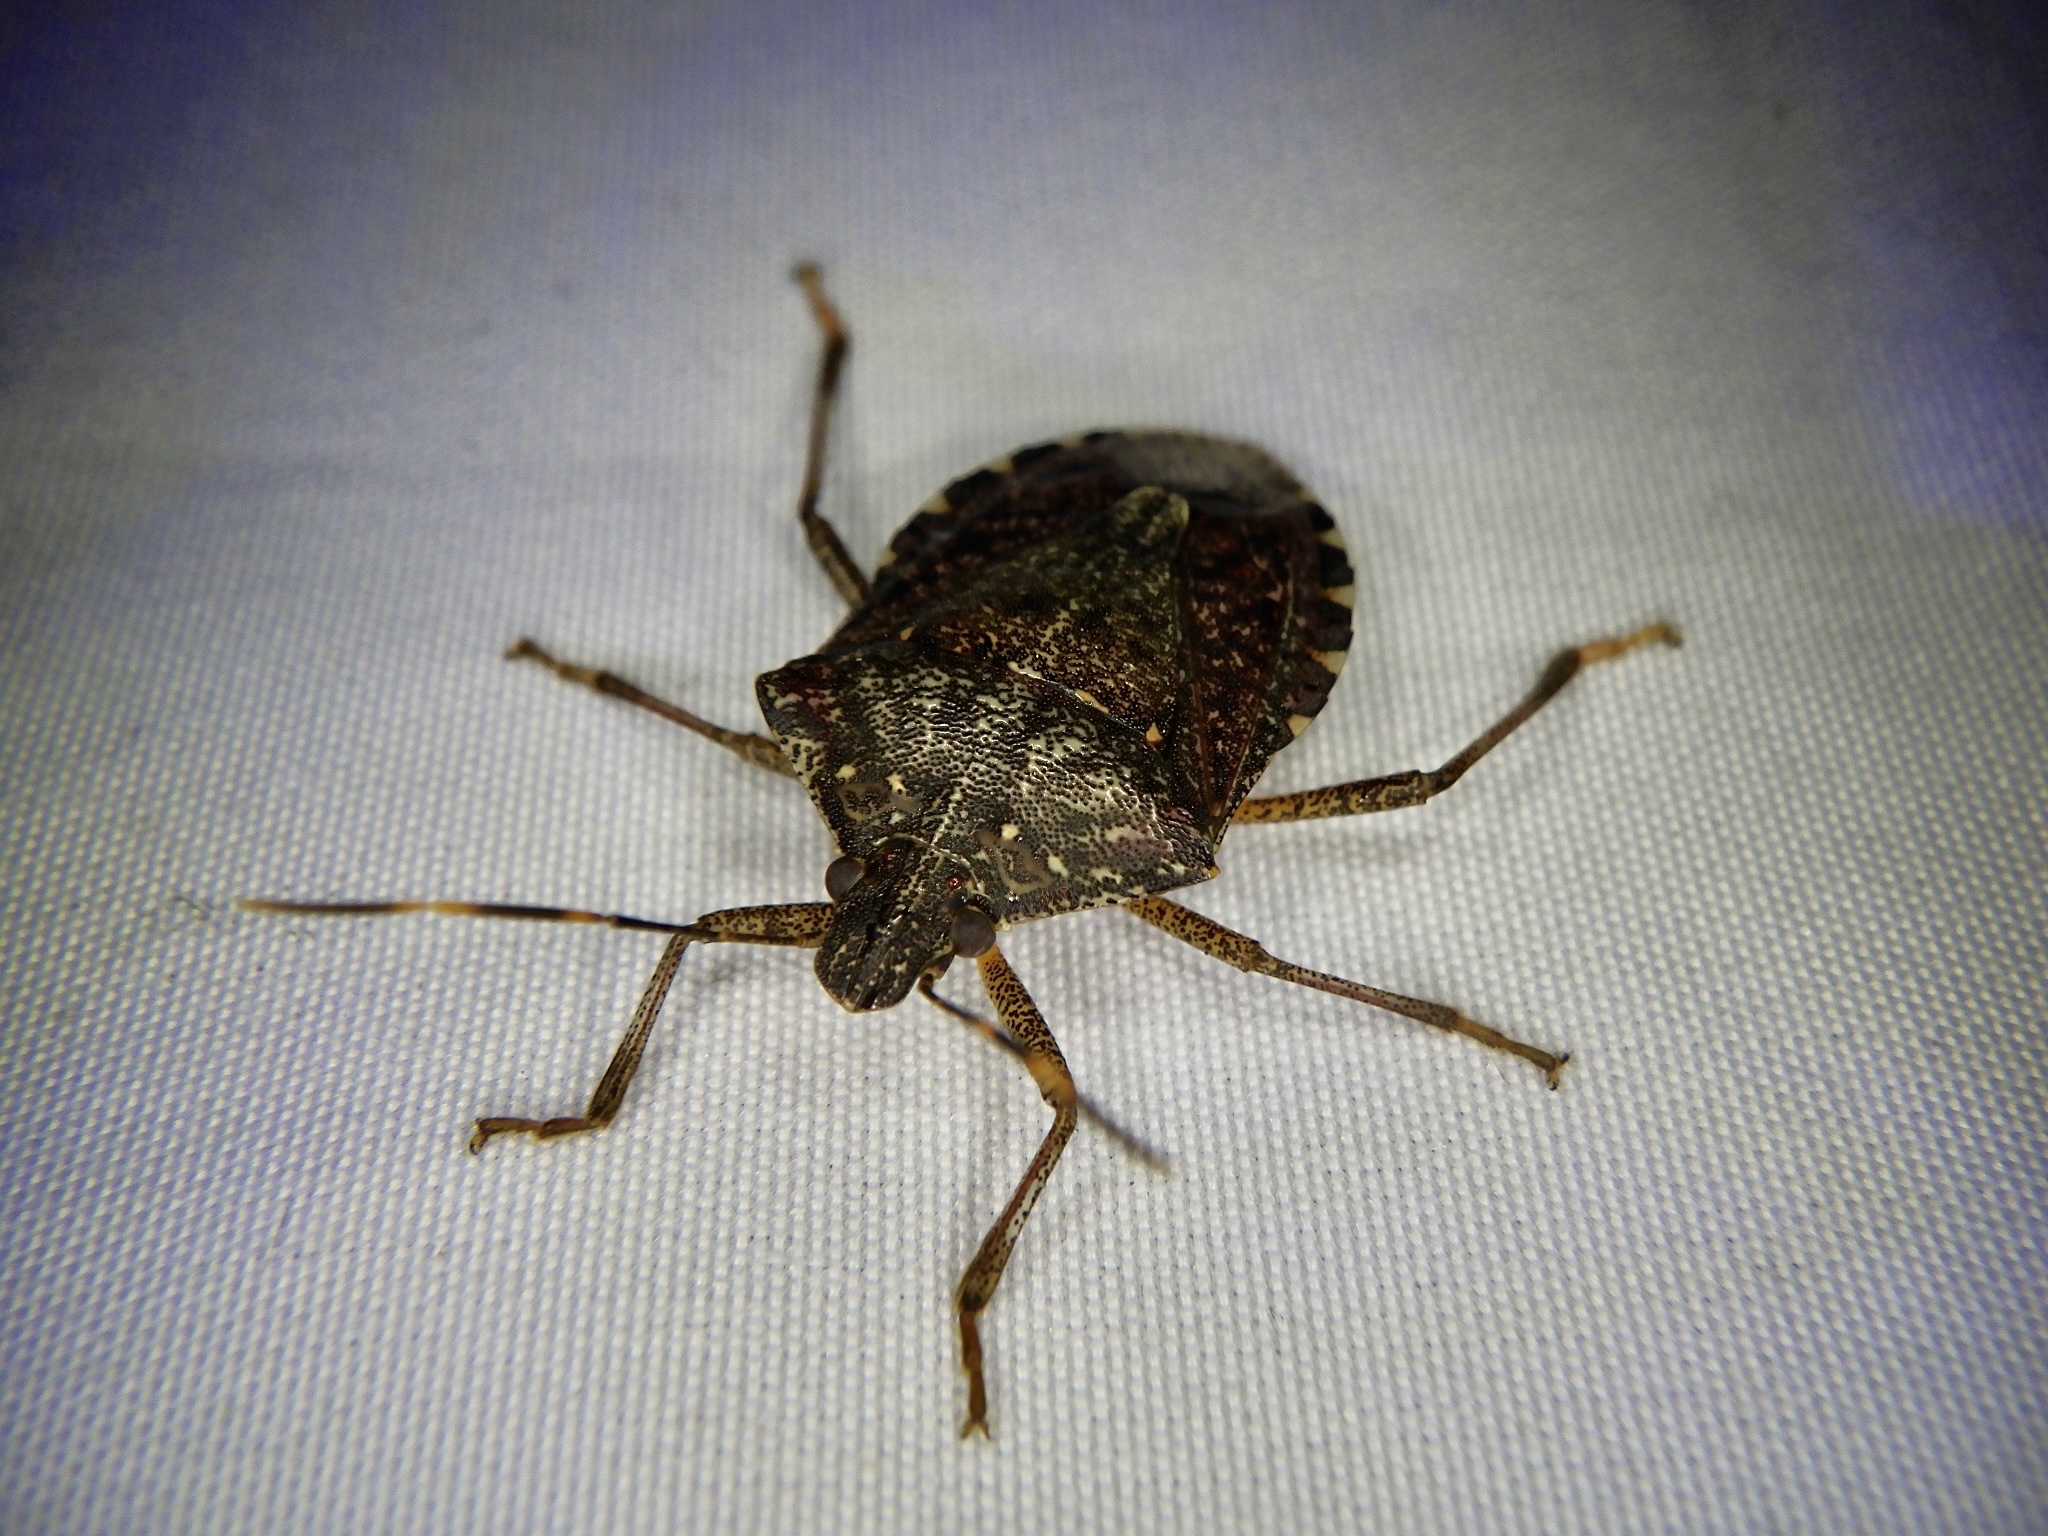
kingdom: Animalia
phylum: Arthropoda
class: Insecta
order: Hemiptera
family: Pentatomidae
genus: Halyomorpha
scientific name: Halyomorpha halys
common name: Brown marmorated stink bug
